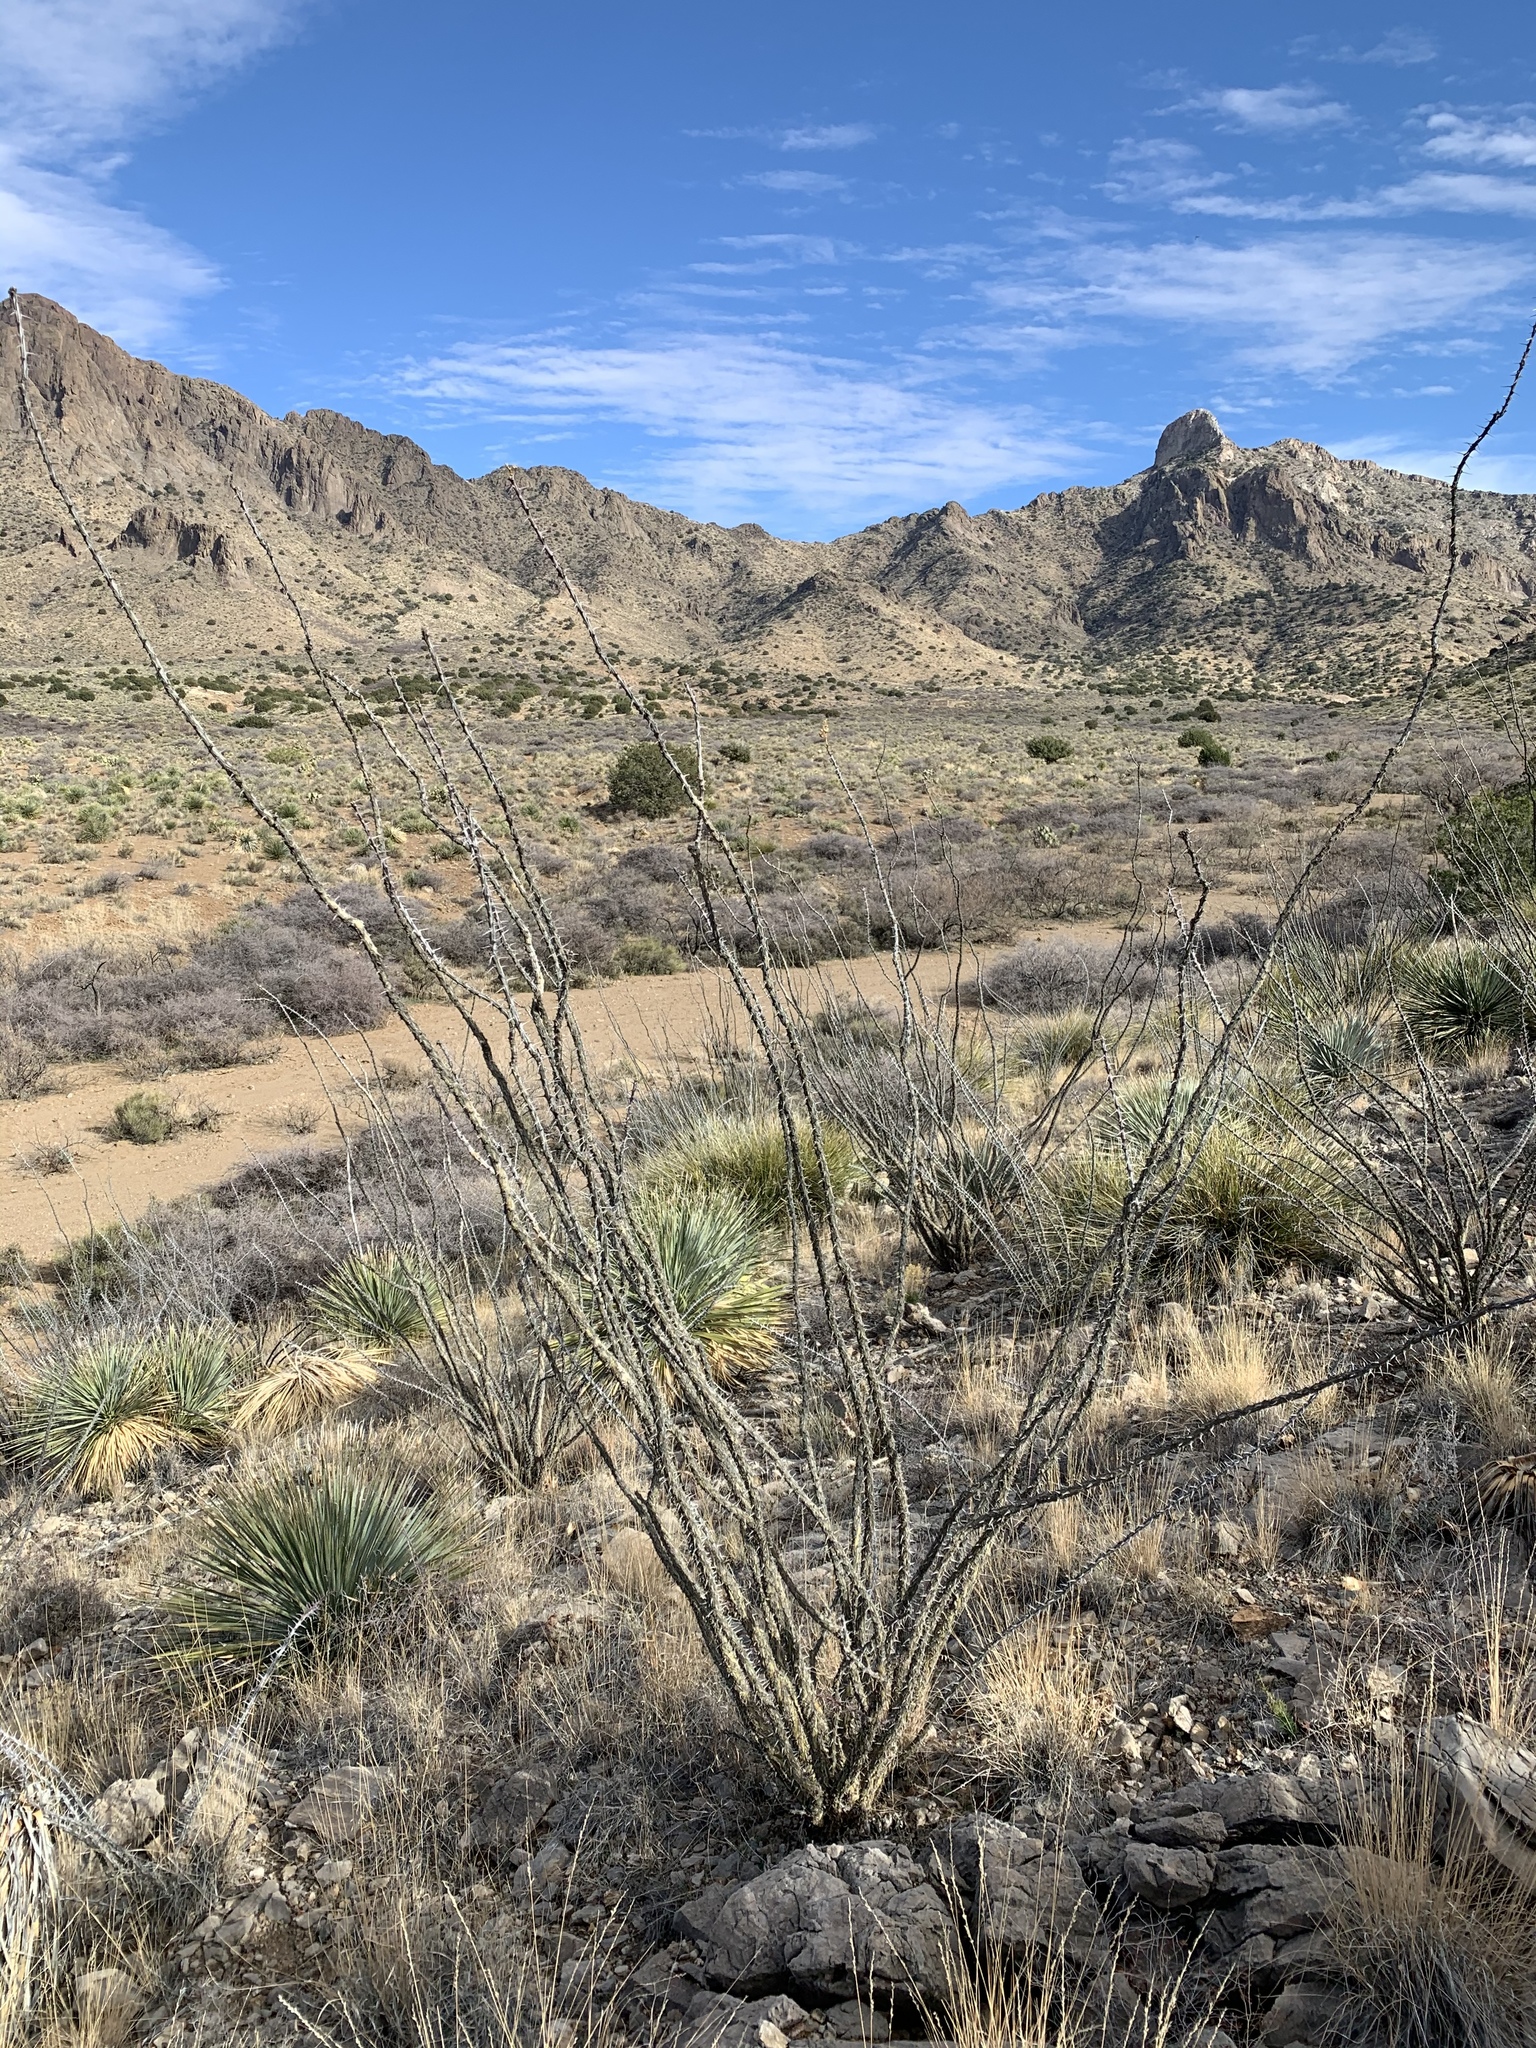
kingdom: Plantae
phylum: Tracheophyta
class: Magnoliopsida
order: Ericales
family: Fouquieriaceae
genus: Fouquieria
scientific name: Fouquieria splendens
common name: Vine-cactus
